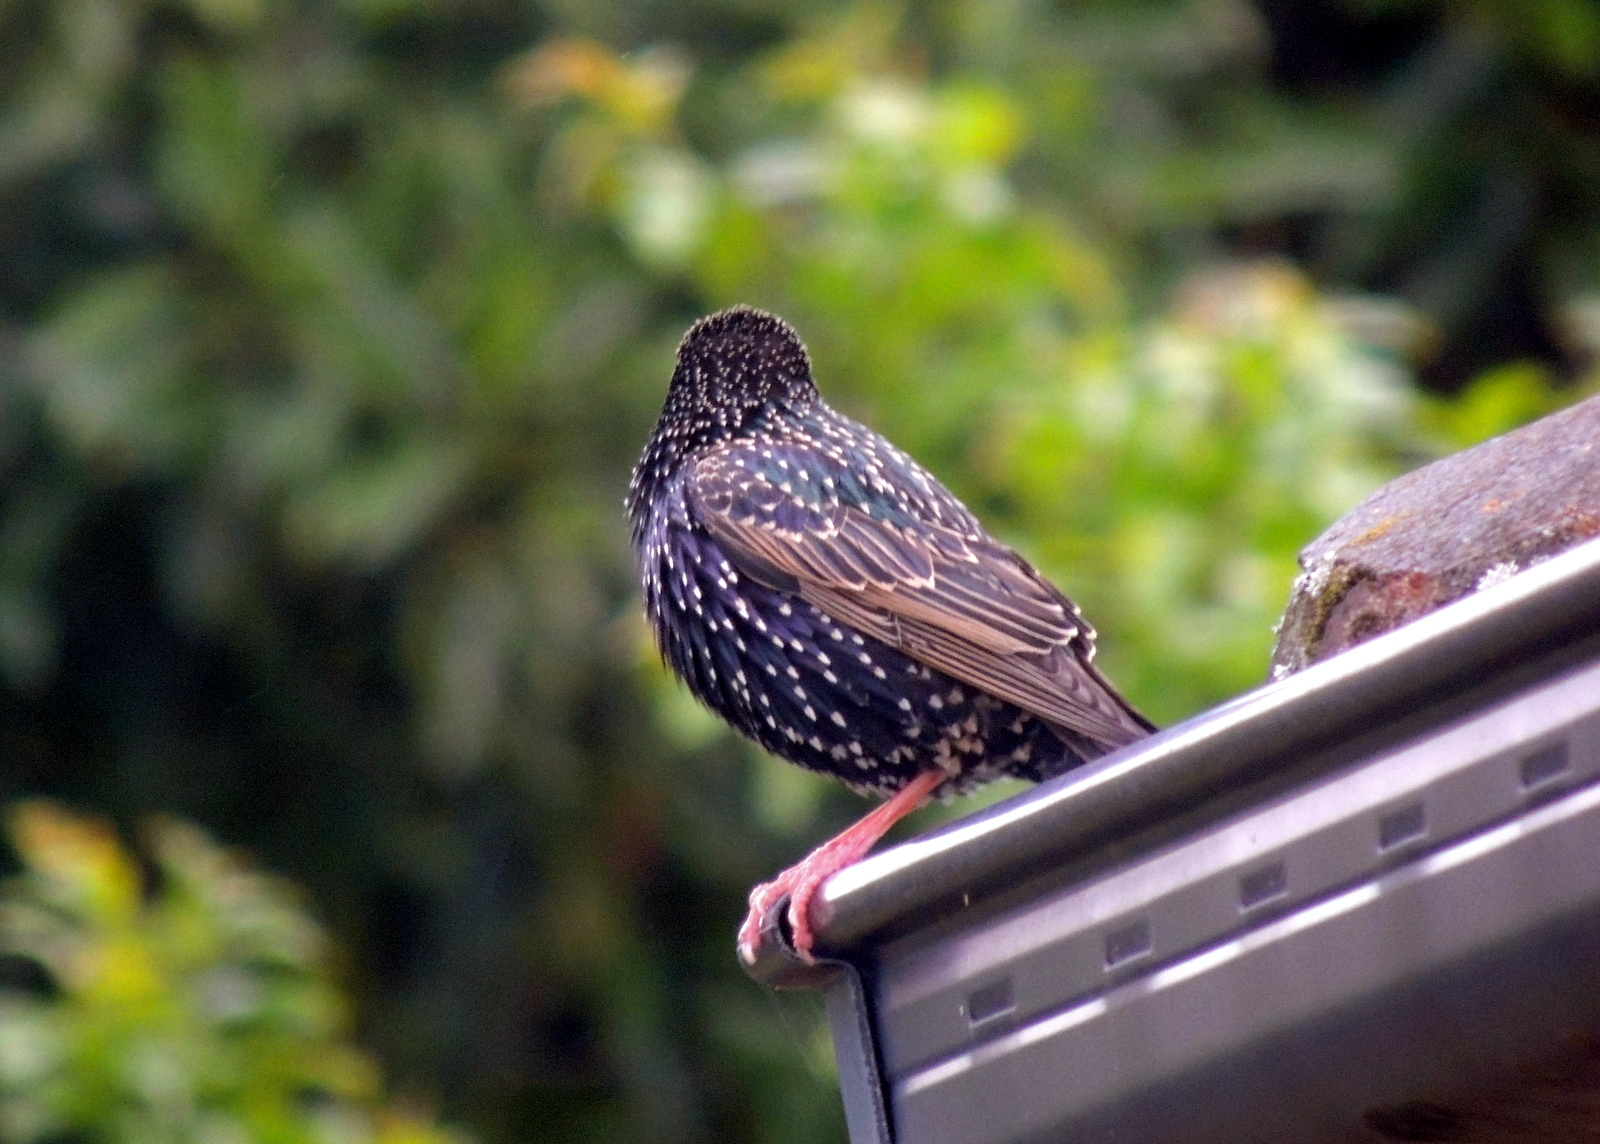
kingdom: Animalia
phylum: Chordata
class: Aves
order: Passeriformes
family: Sturnidae
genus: Sturnus
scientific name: Sturnus vulgaris
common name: Common starling
